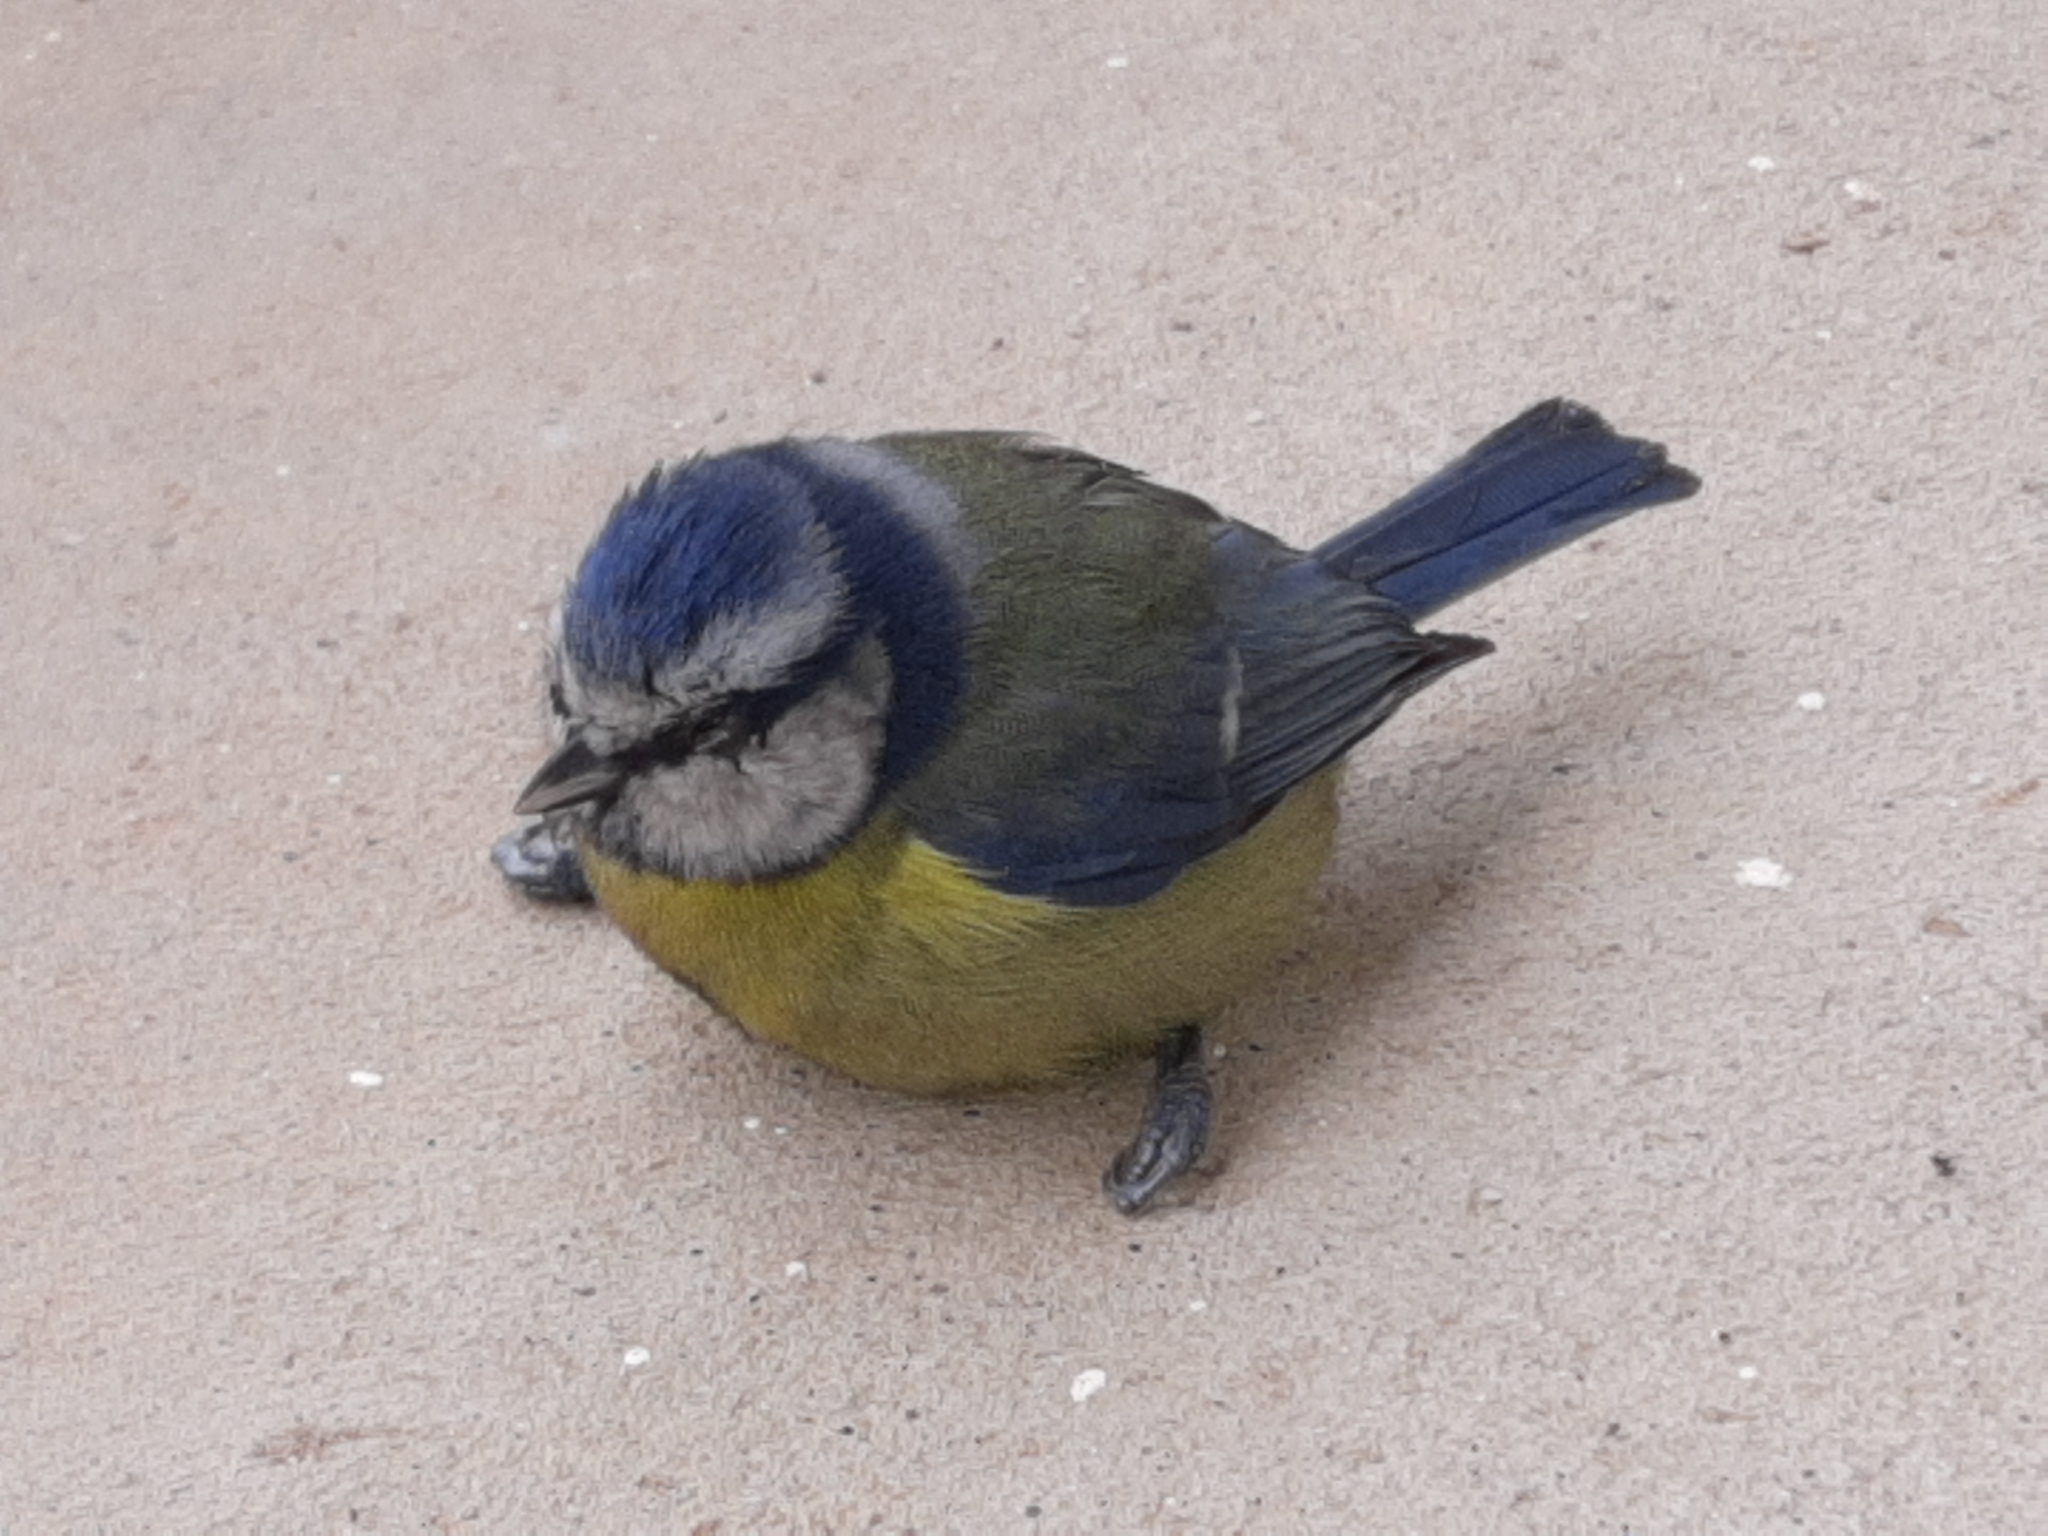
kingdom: Animalia
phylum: Chordata
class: Aves
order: Passeriformes
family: Paridae
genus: Cyanistes
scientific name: Cyanistes caeruleus
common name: Eurasian blue tit
